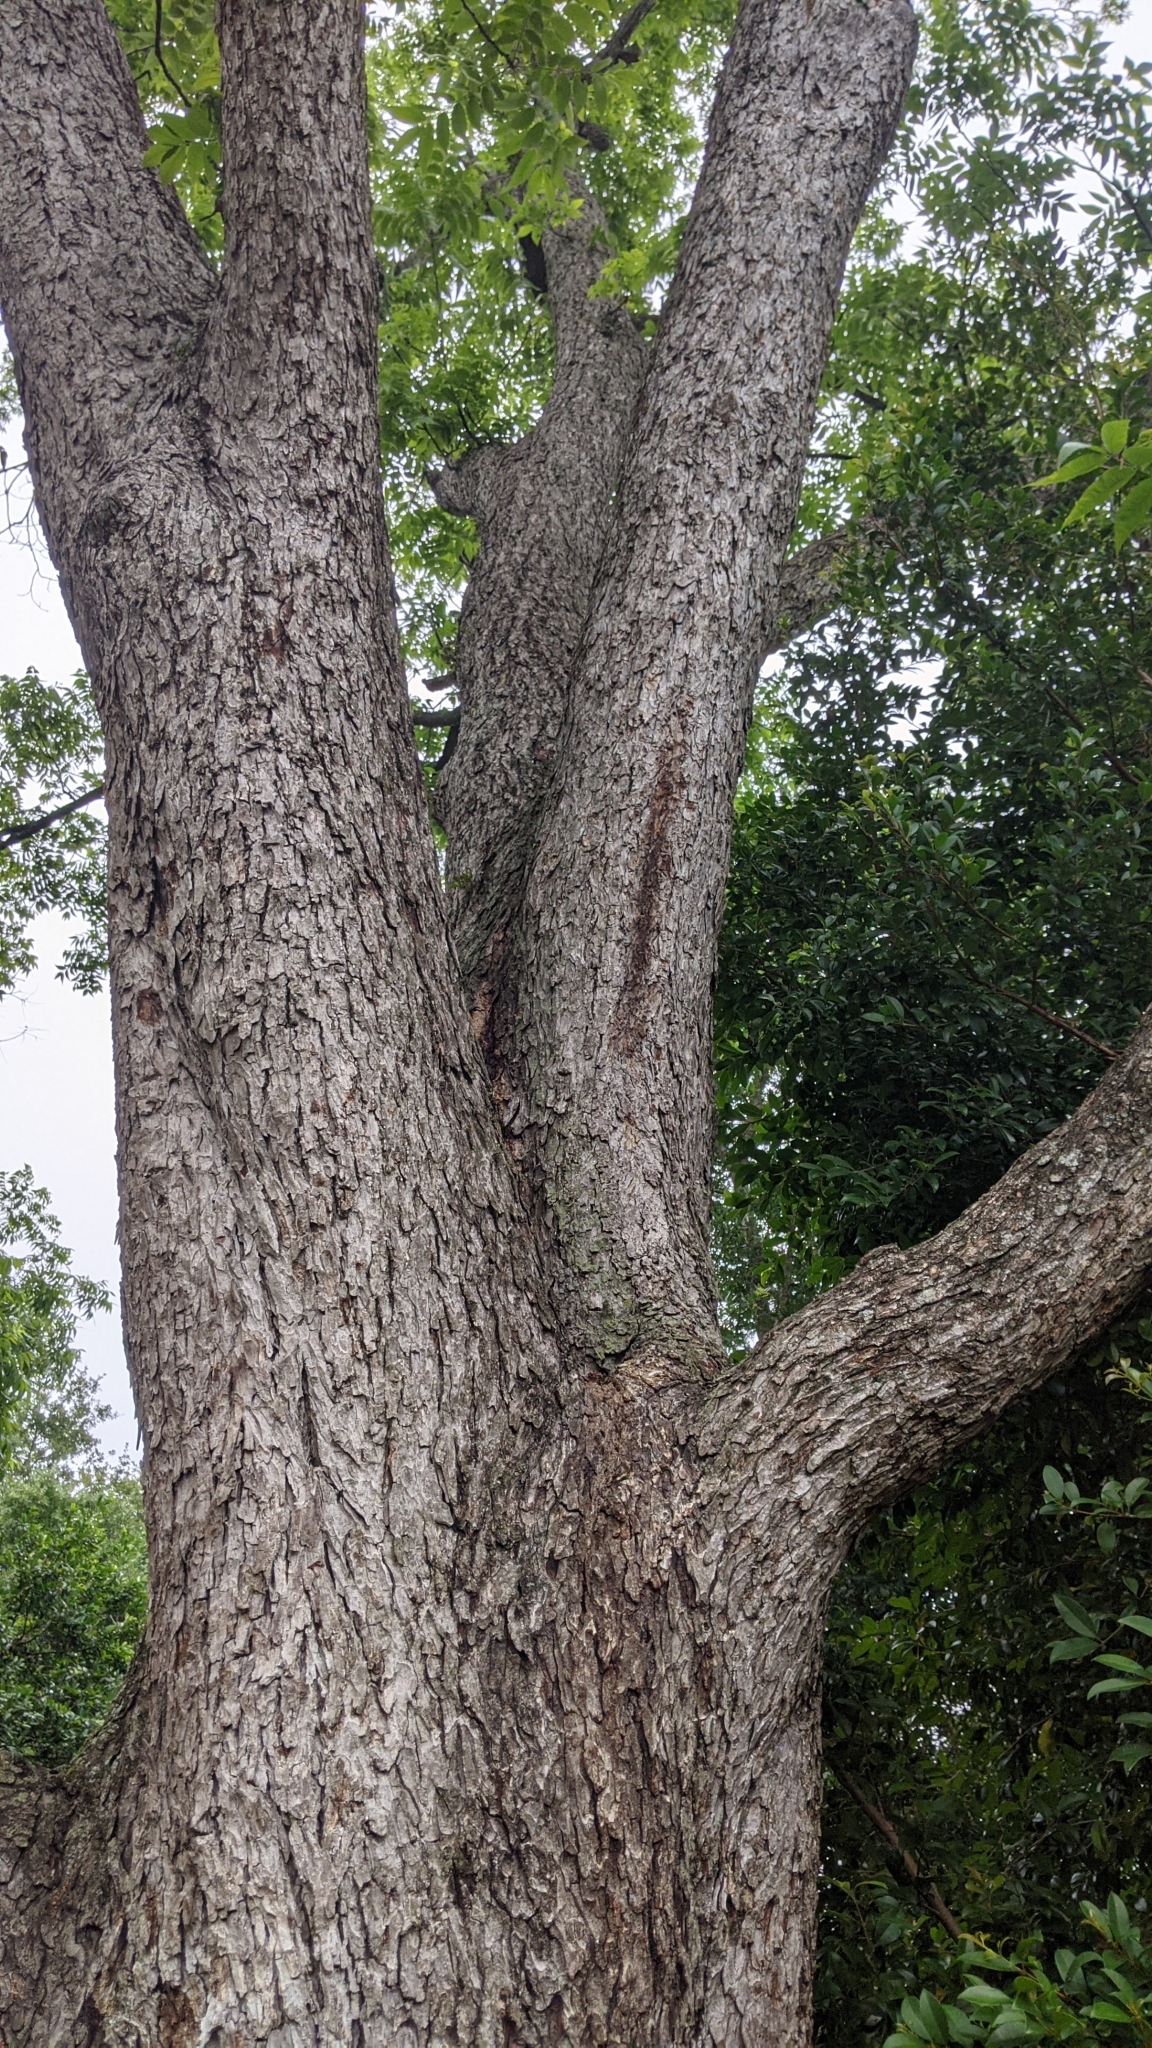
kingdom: Plantae
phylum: Tracheophyta
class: Magnoliopsida
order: Fagales
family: Juglandaceae
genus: Carya
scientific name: Carya illinoinensis
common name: Pecan
